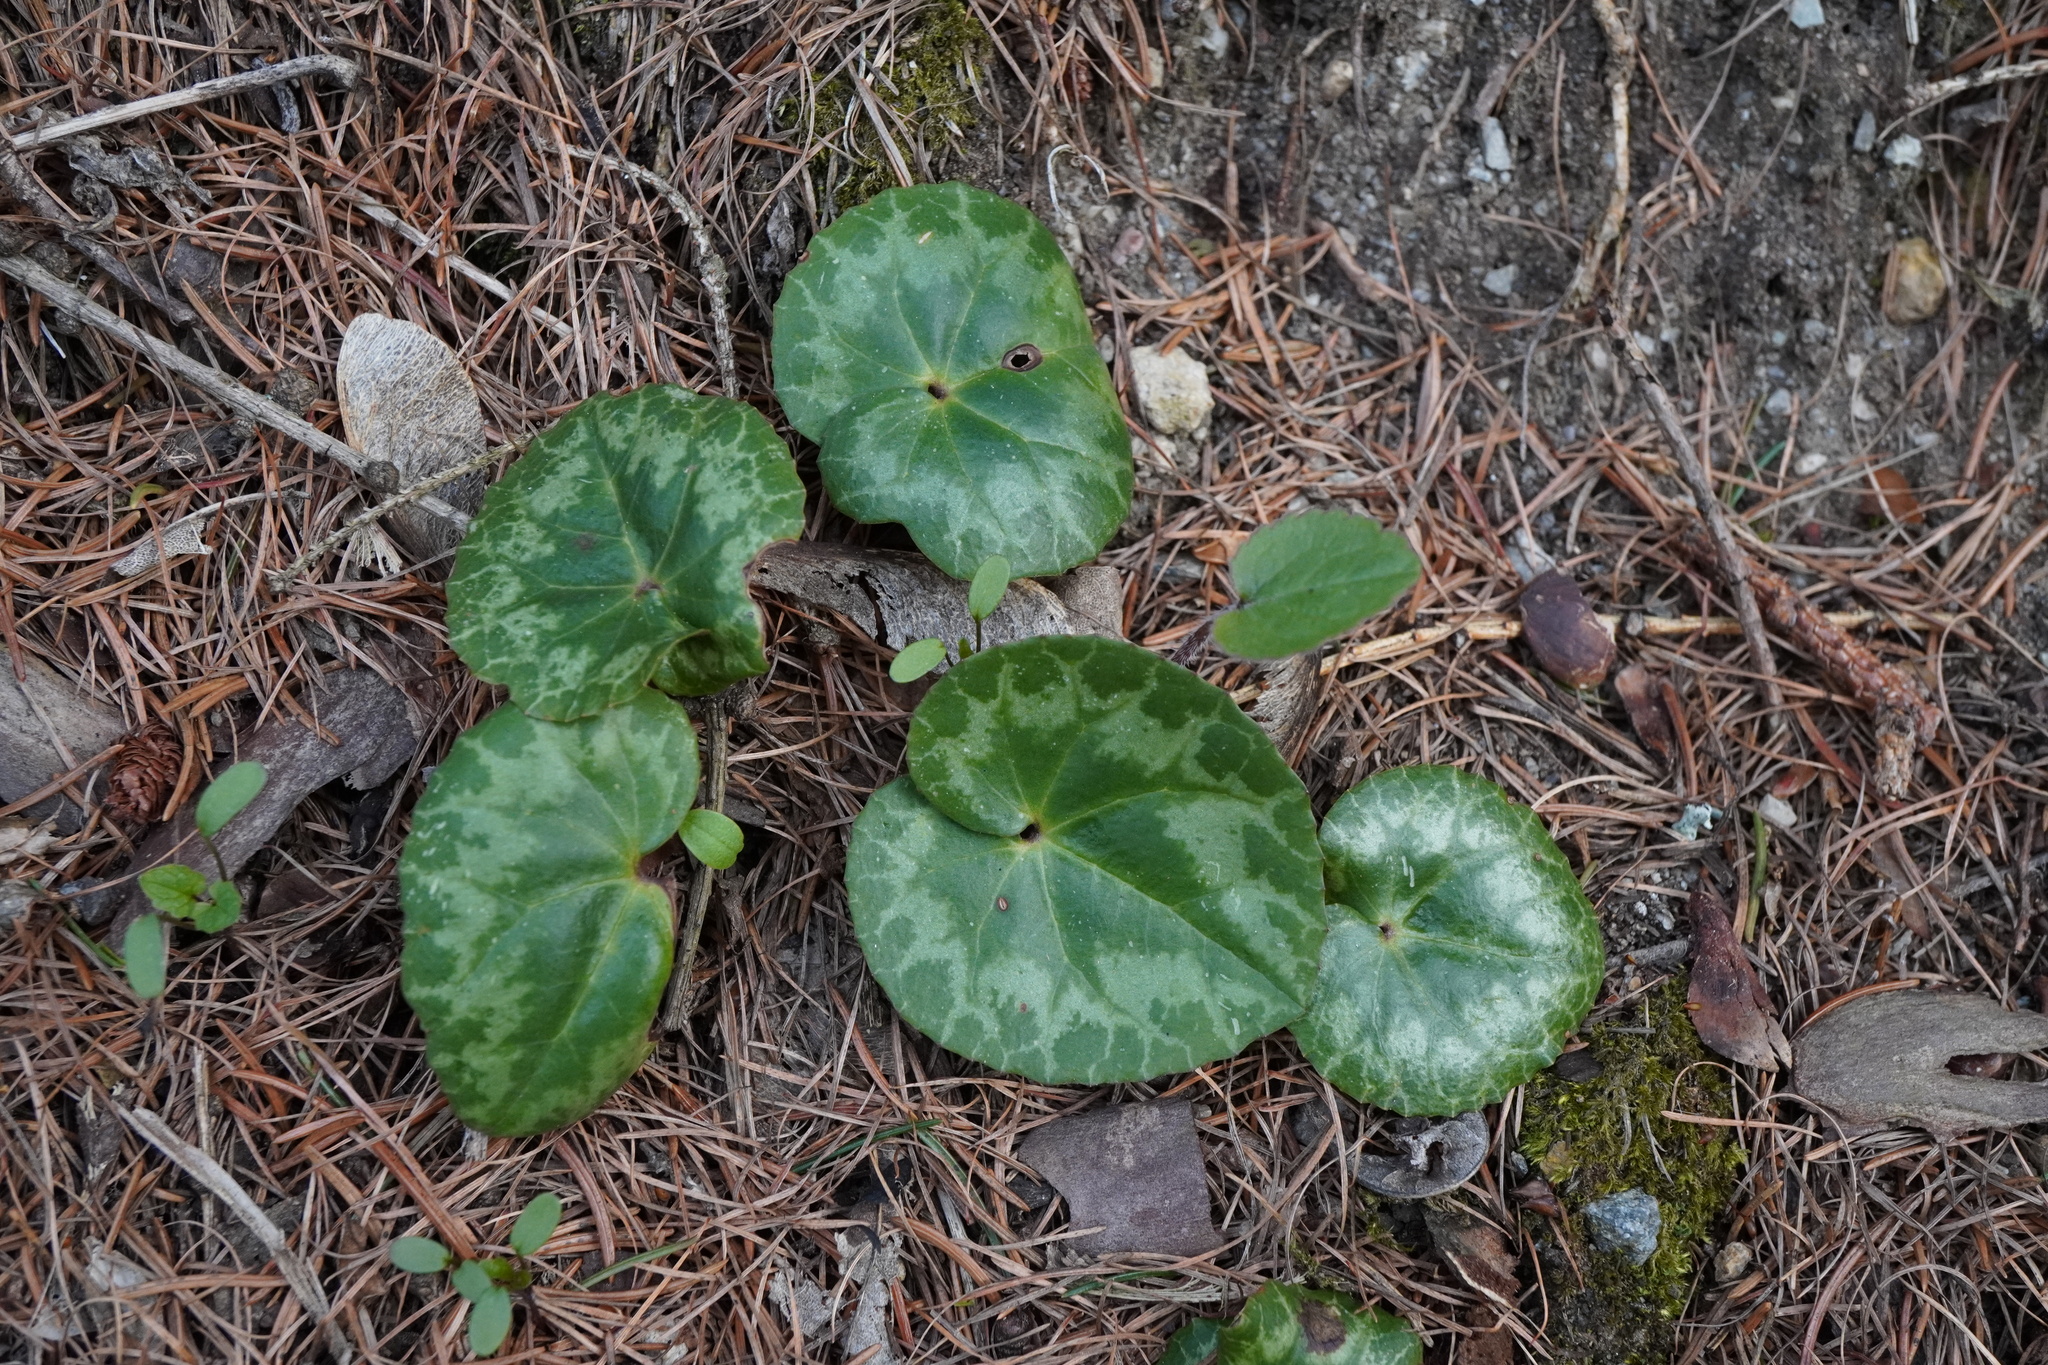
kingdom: Plantae
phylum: Tracheophyta
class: Magnoliopsida
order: Ericales
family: Primulaceae
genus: Cyclamen
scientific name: Cyclamen purpurascens
